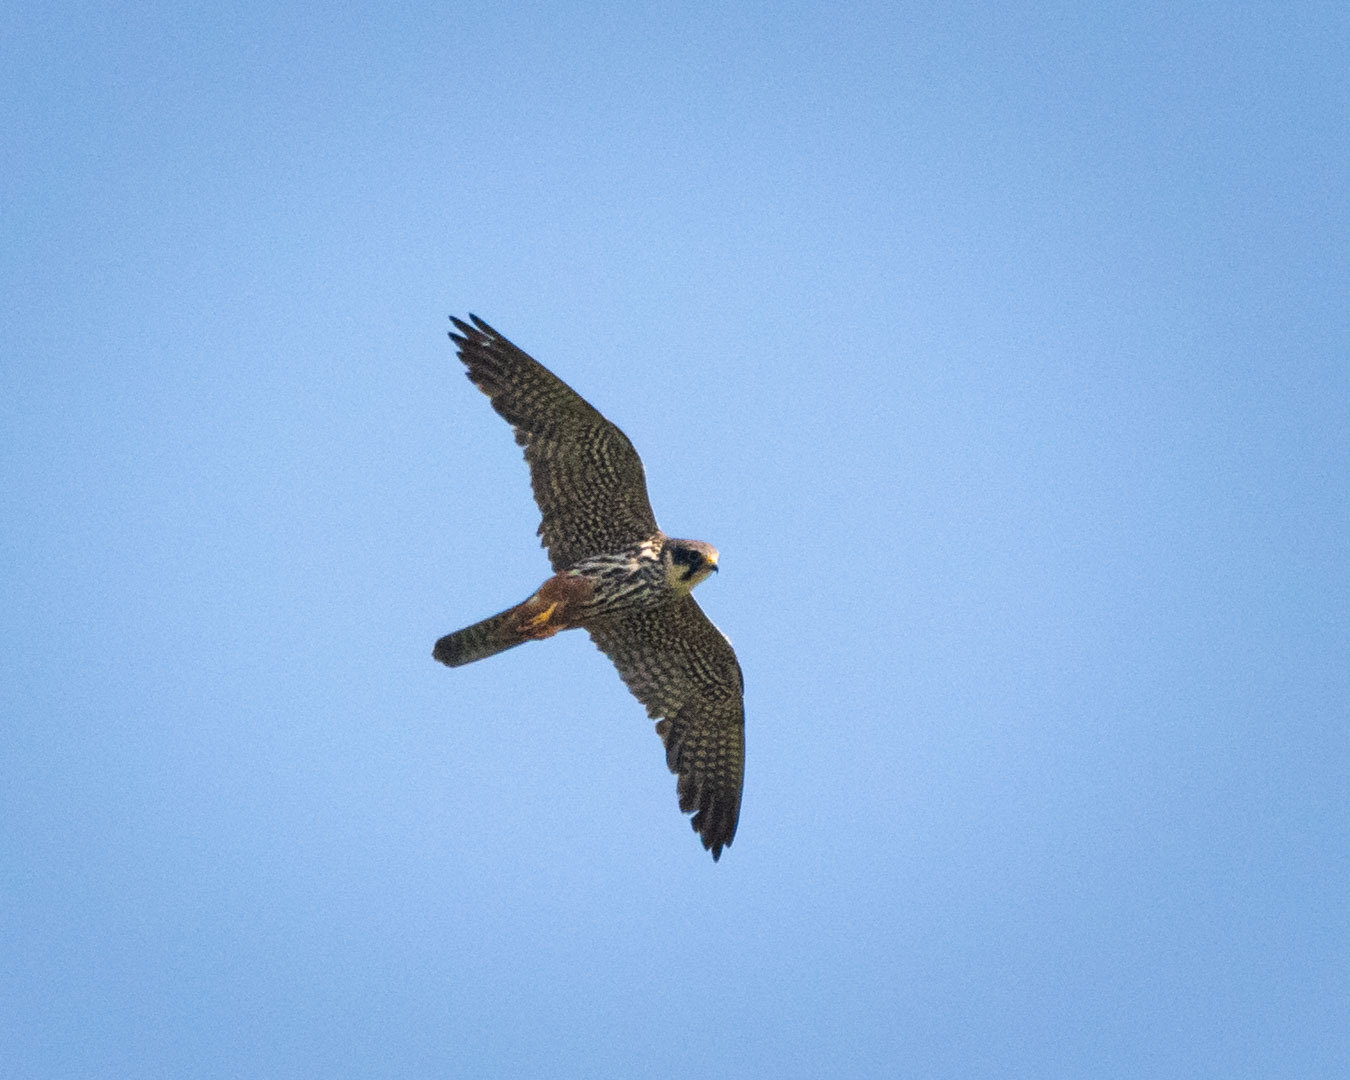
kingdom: Animalia
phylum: Chordata
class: Aves
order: Falconiformes
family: Falconidae
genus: Falco
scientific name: Falco subbuteo
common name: Eurasian hobby
